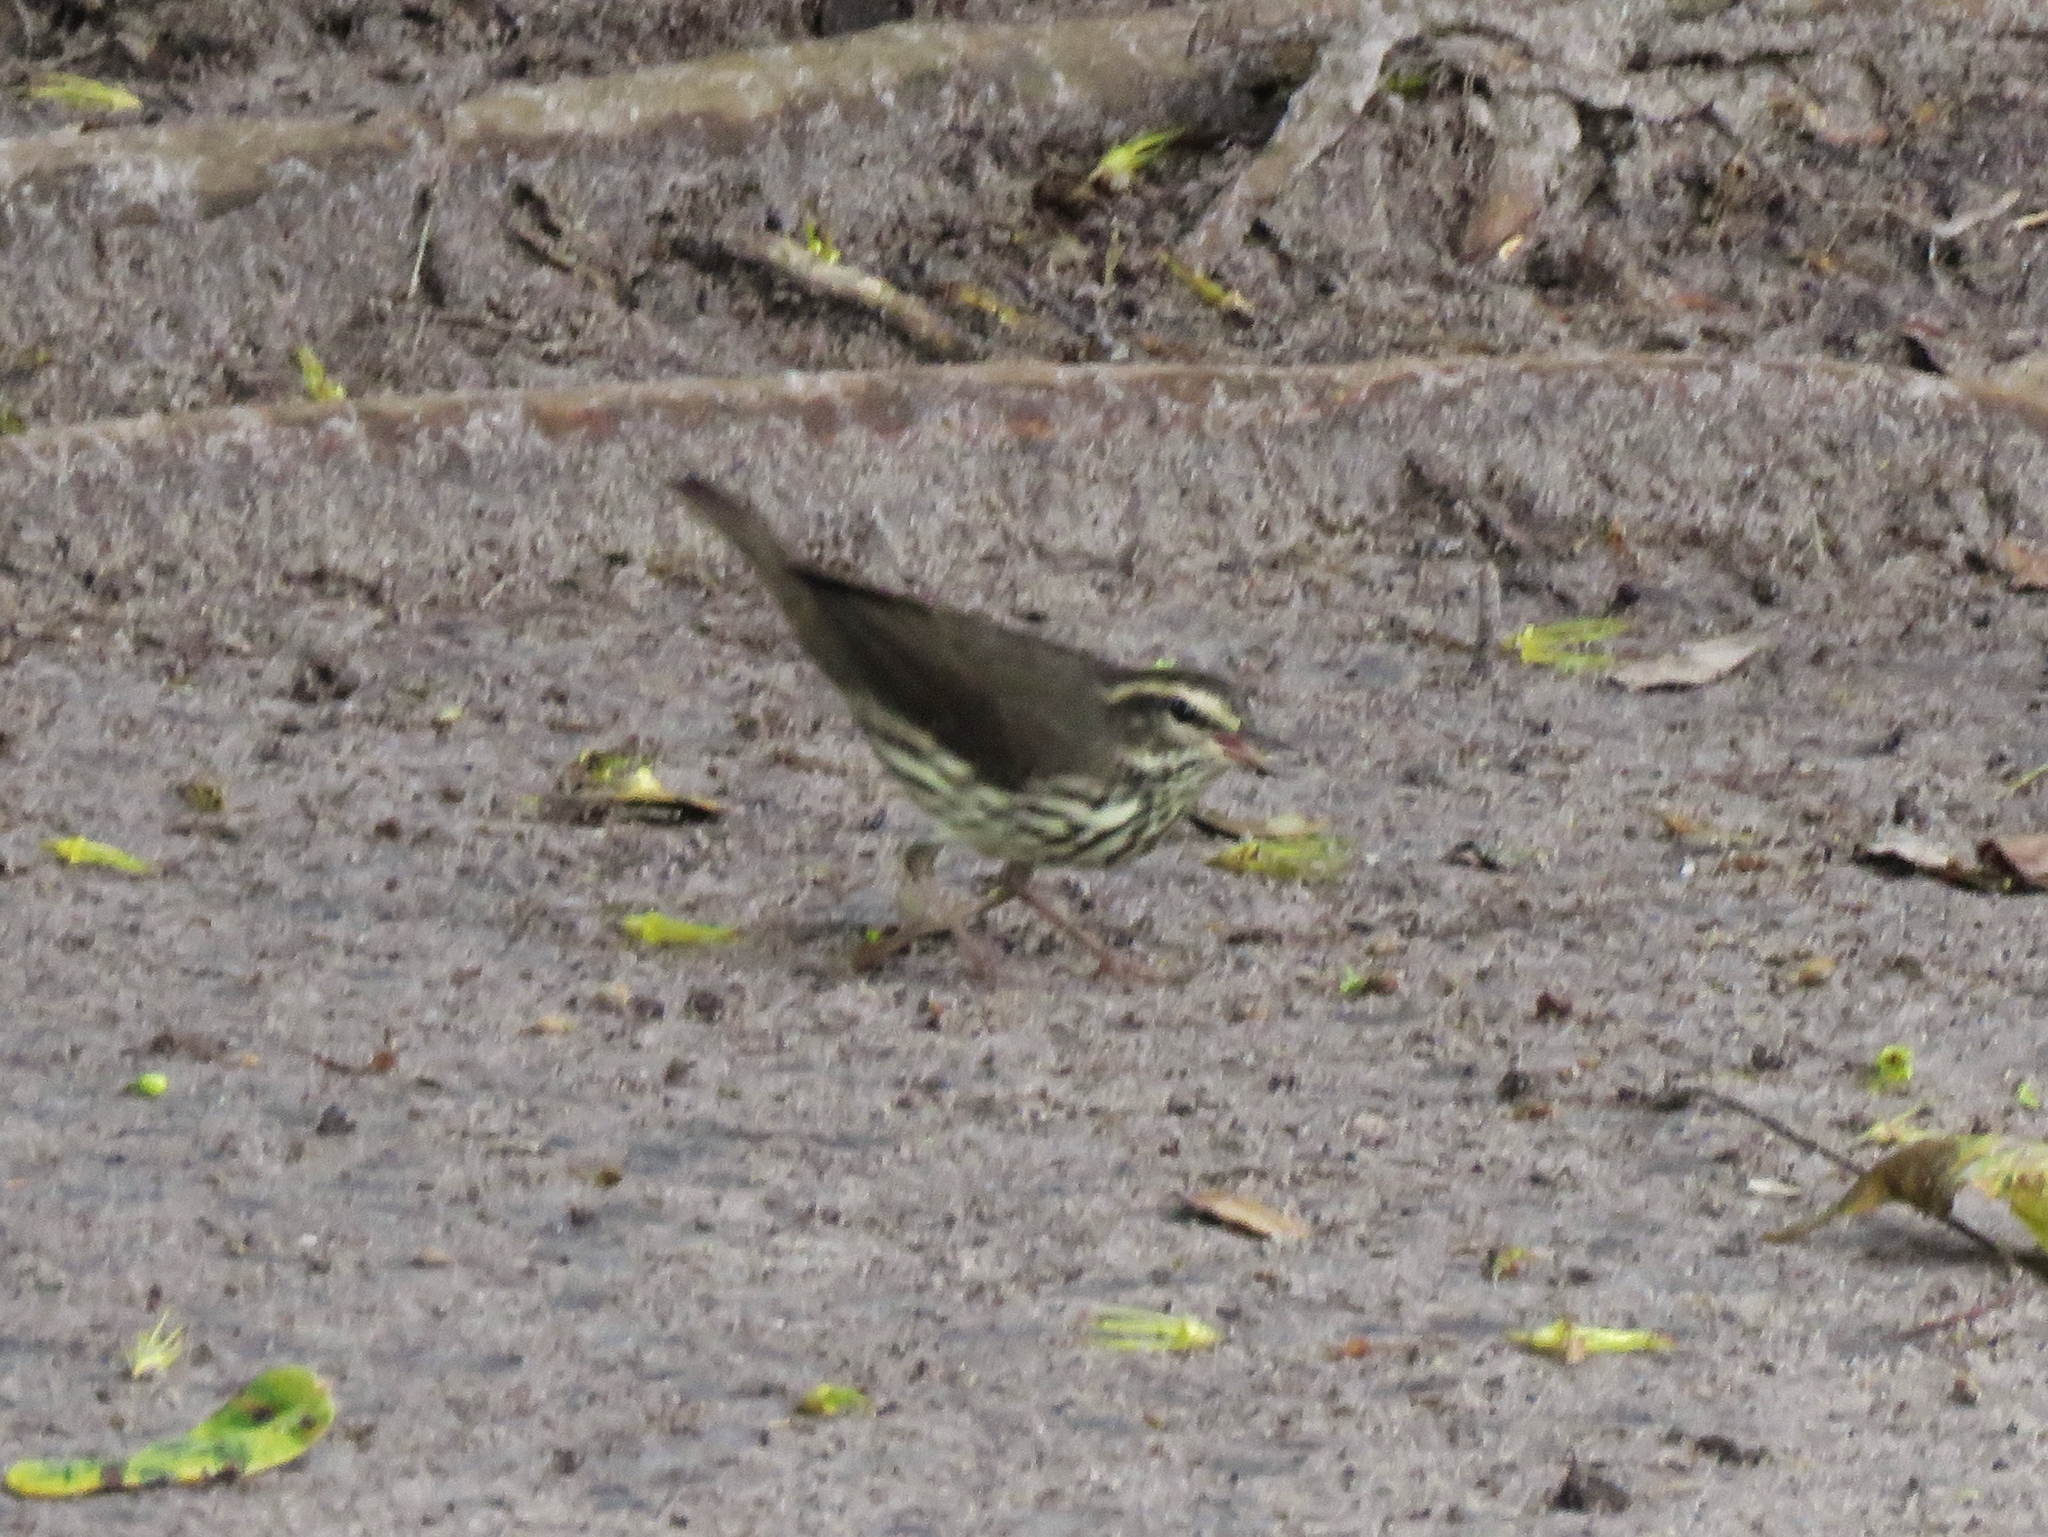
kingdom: Animalia
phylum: Chordata
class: Aves
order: Passeriformes
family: Parulidae
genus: Parkesia
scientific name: Parkesia noveboracensis
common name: Northern waterthrush
